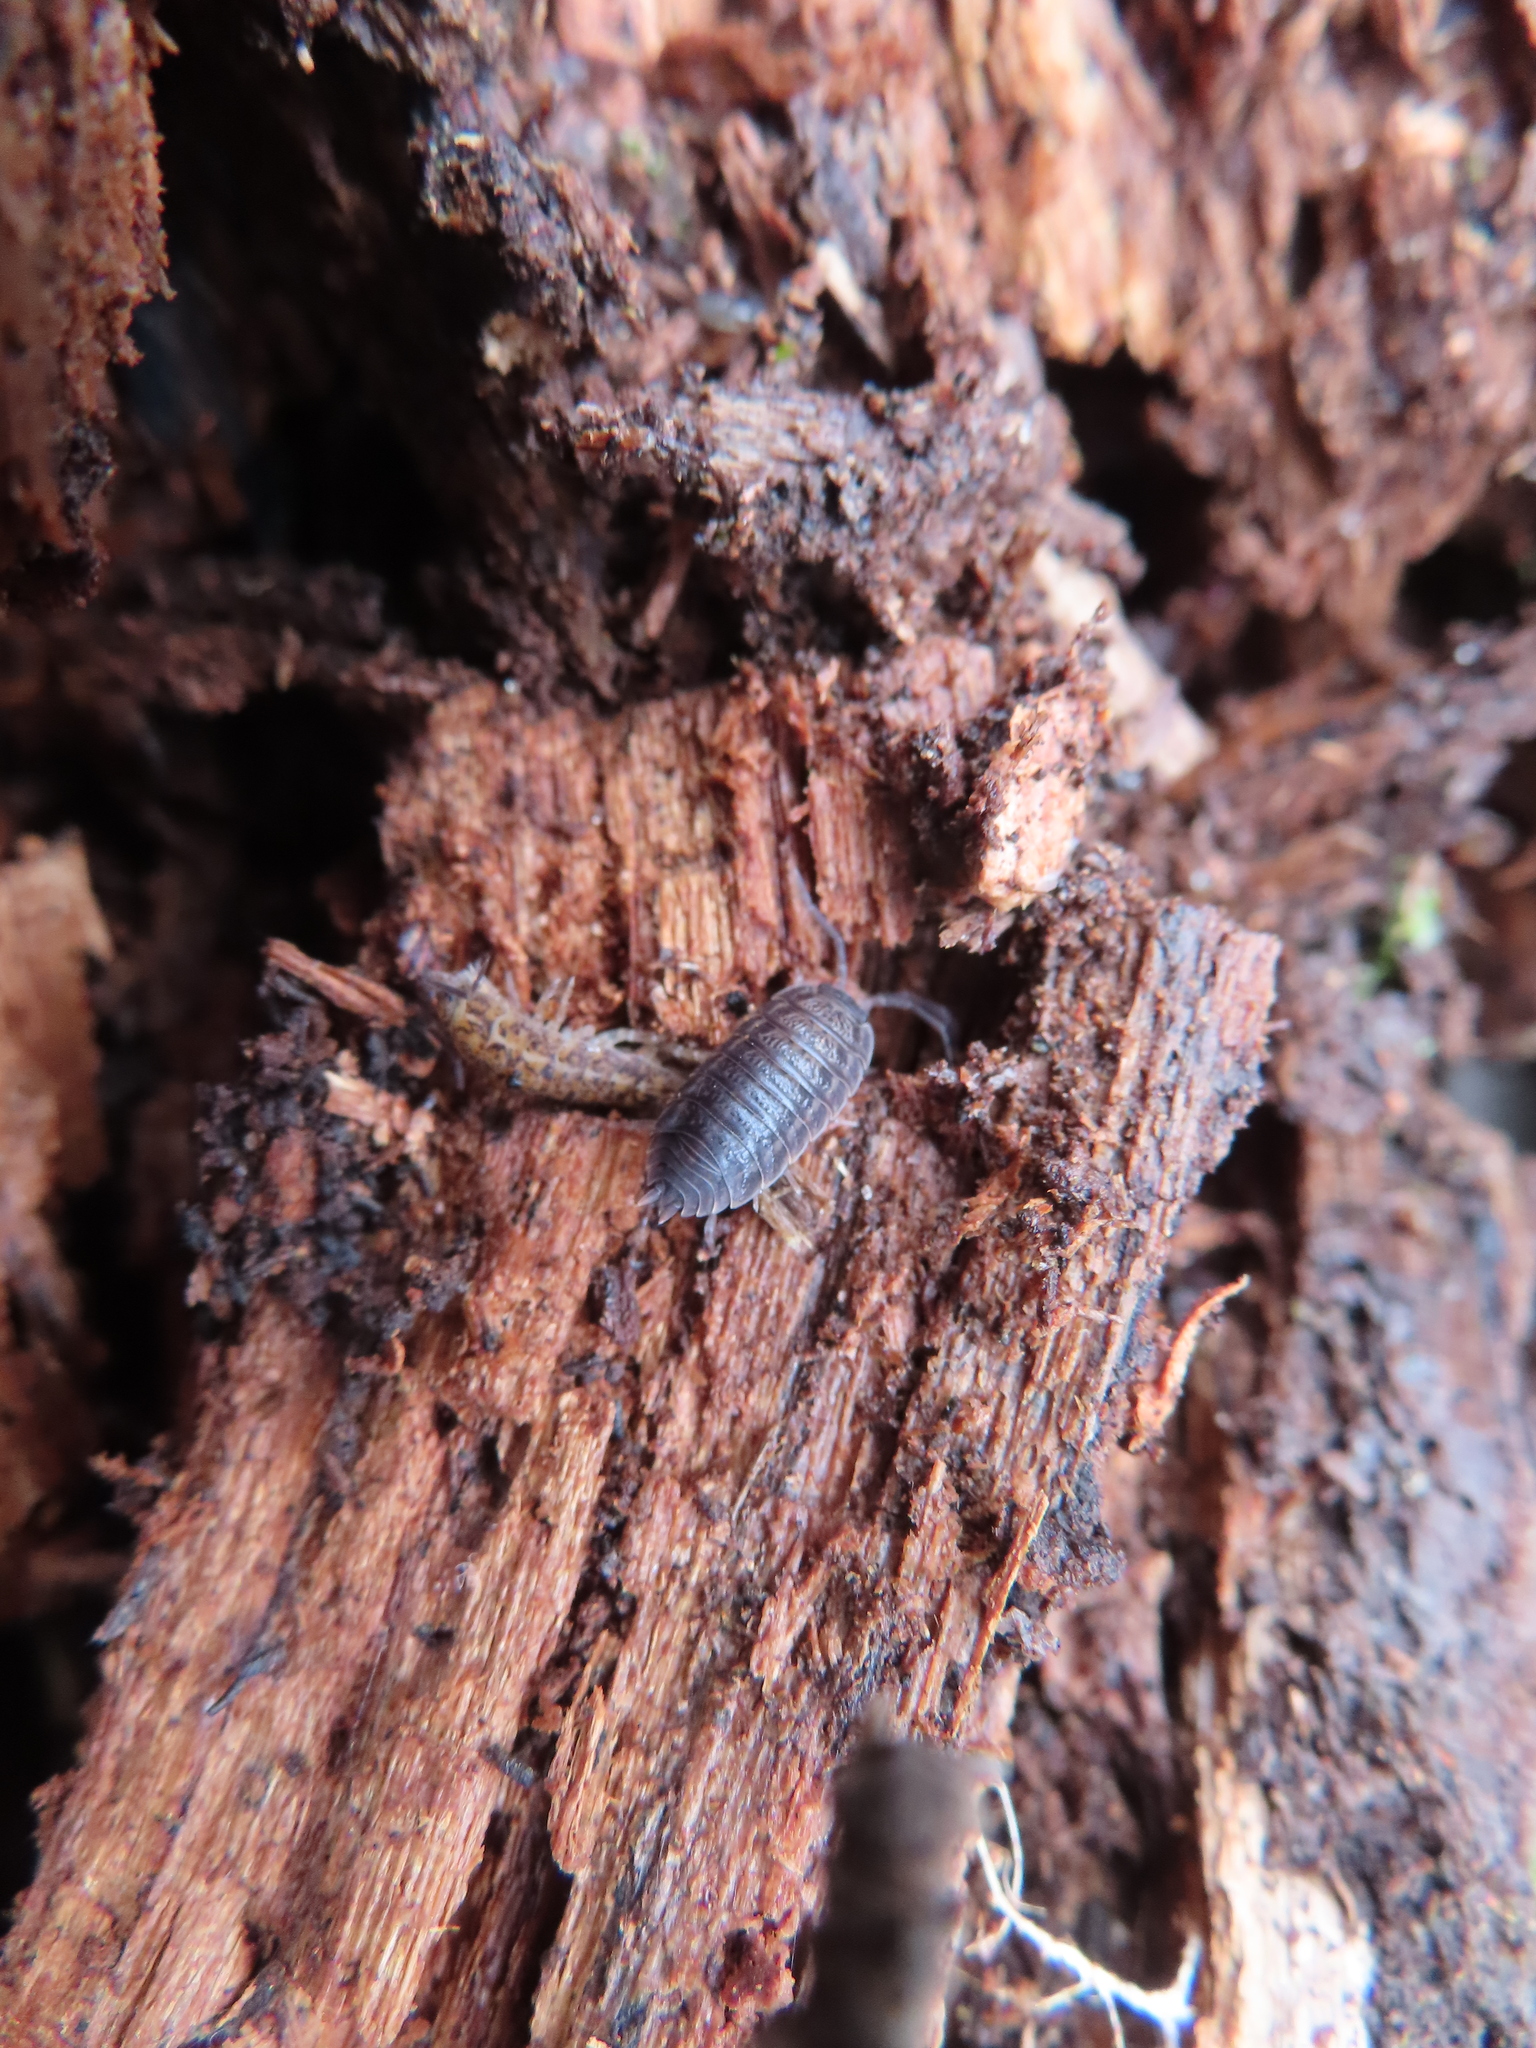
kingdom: Animalia
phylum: Arthropoda
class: Malacostraca
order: Isopoda
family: Trachelipodidae
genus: Trachelipus
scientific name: Trachelipus rathkii
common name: Isopod
